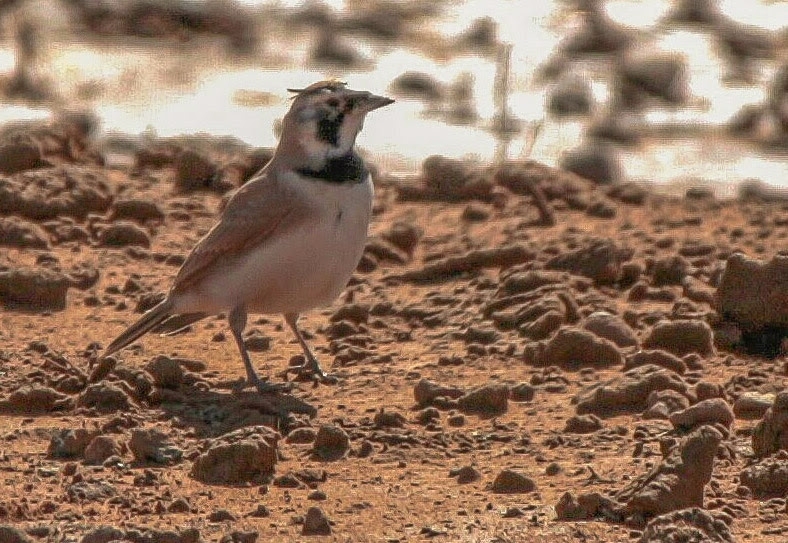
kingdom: Animalia
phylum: Chordata
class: Aves
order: Passeriformes
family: Alaudidae
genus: Eremophila
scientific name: Eremophila bilopha
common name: Temminck's lark
